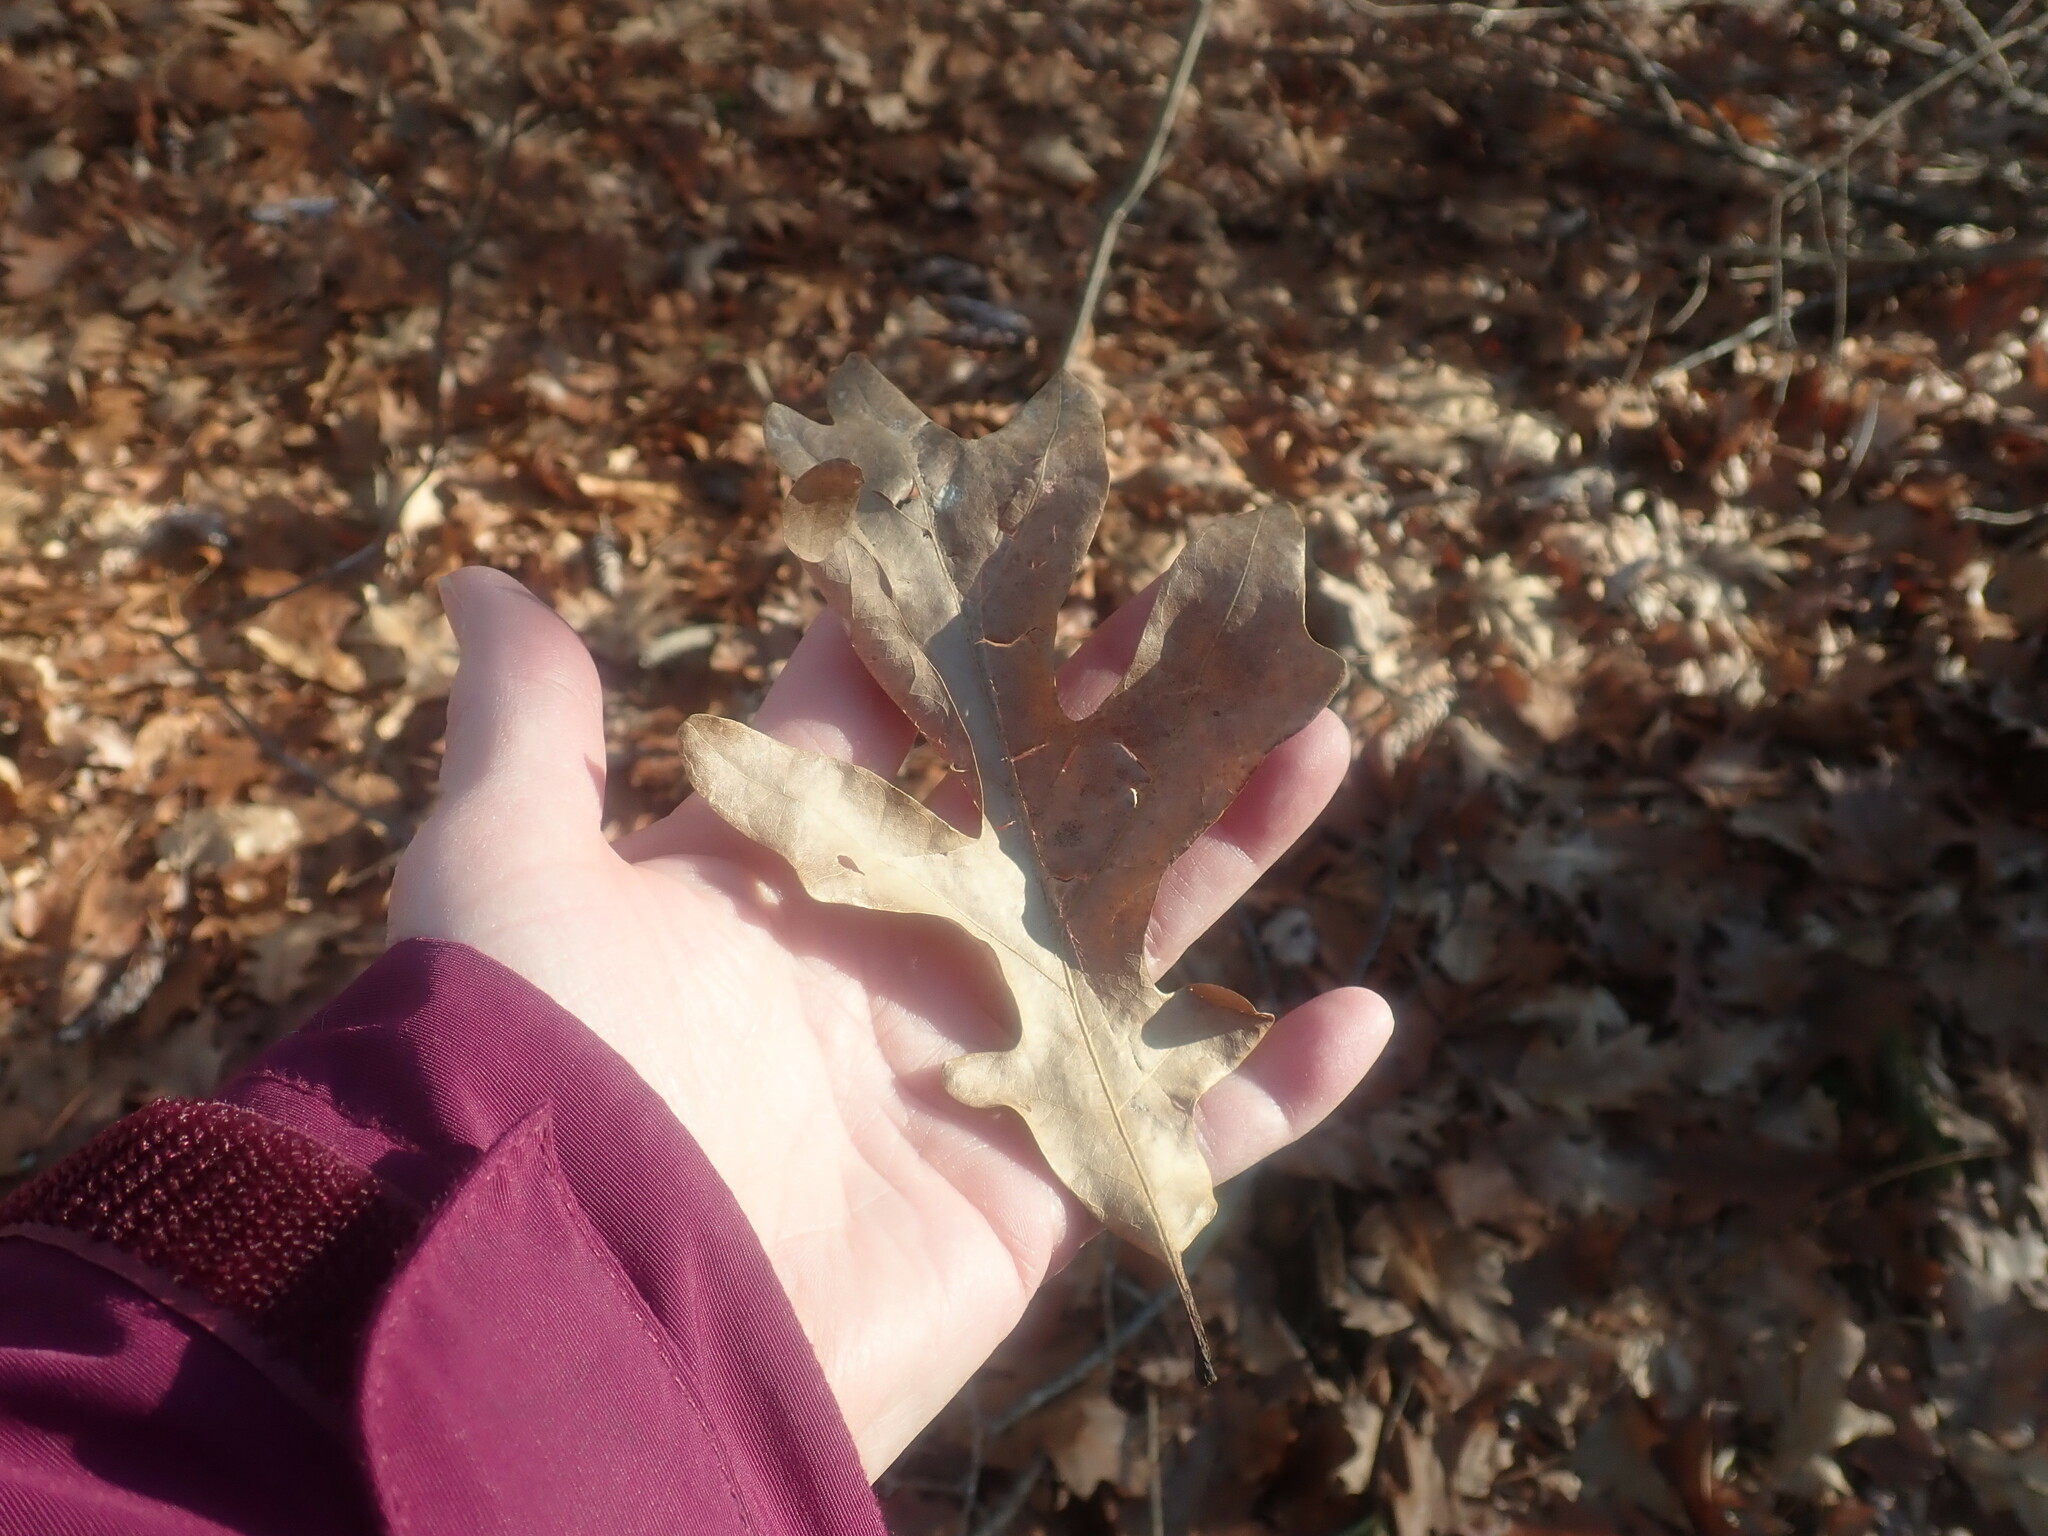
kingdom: Plantae
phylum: Tracheophyta
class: Magnoliopsida
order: Fagales
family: Fagaceae
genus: Quercus
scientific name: Quercus alba
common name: White oak
